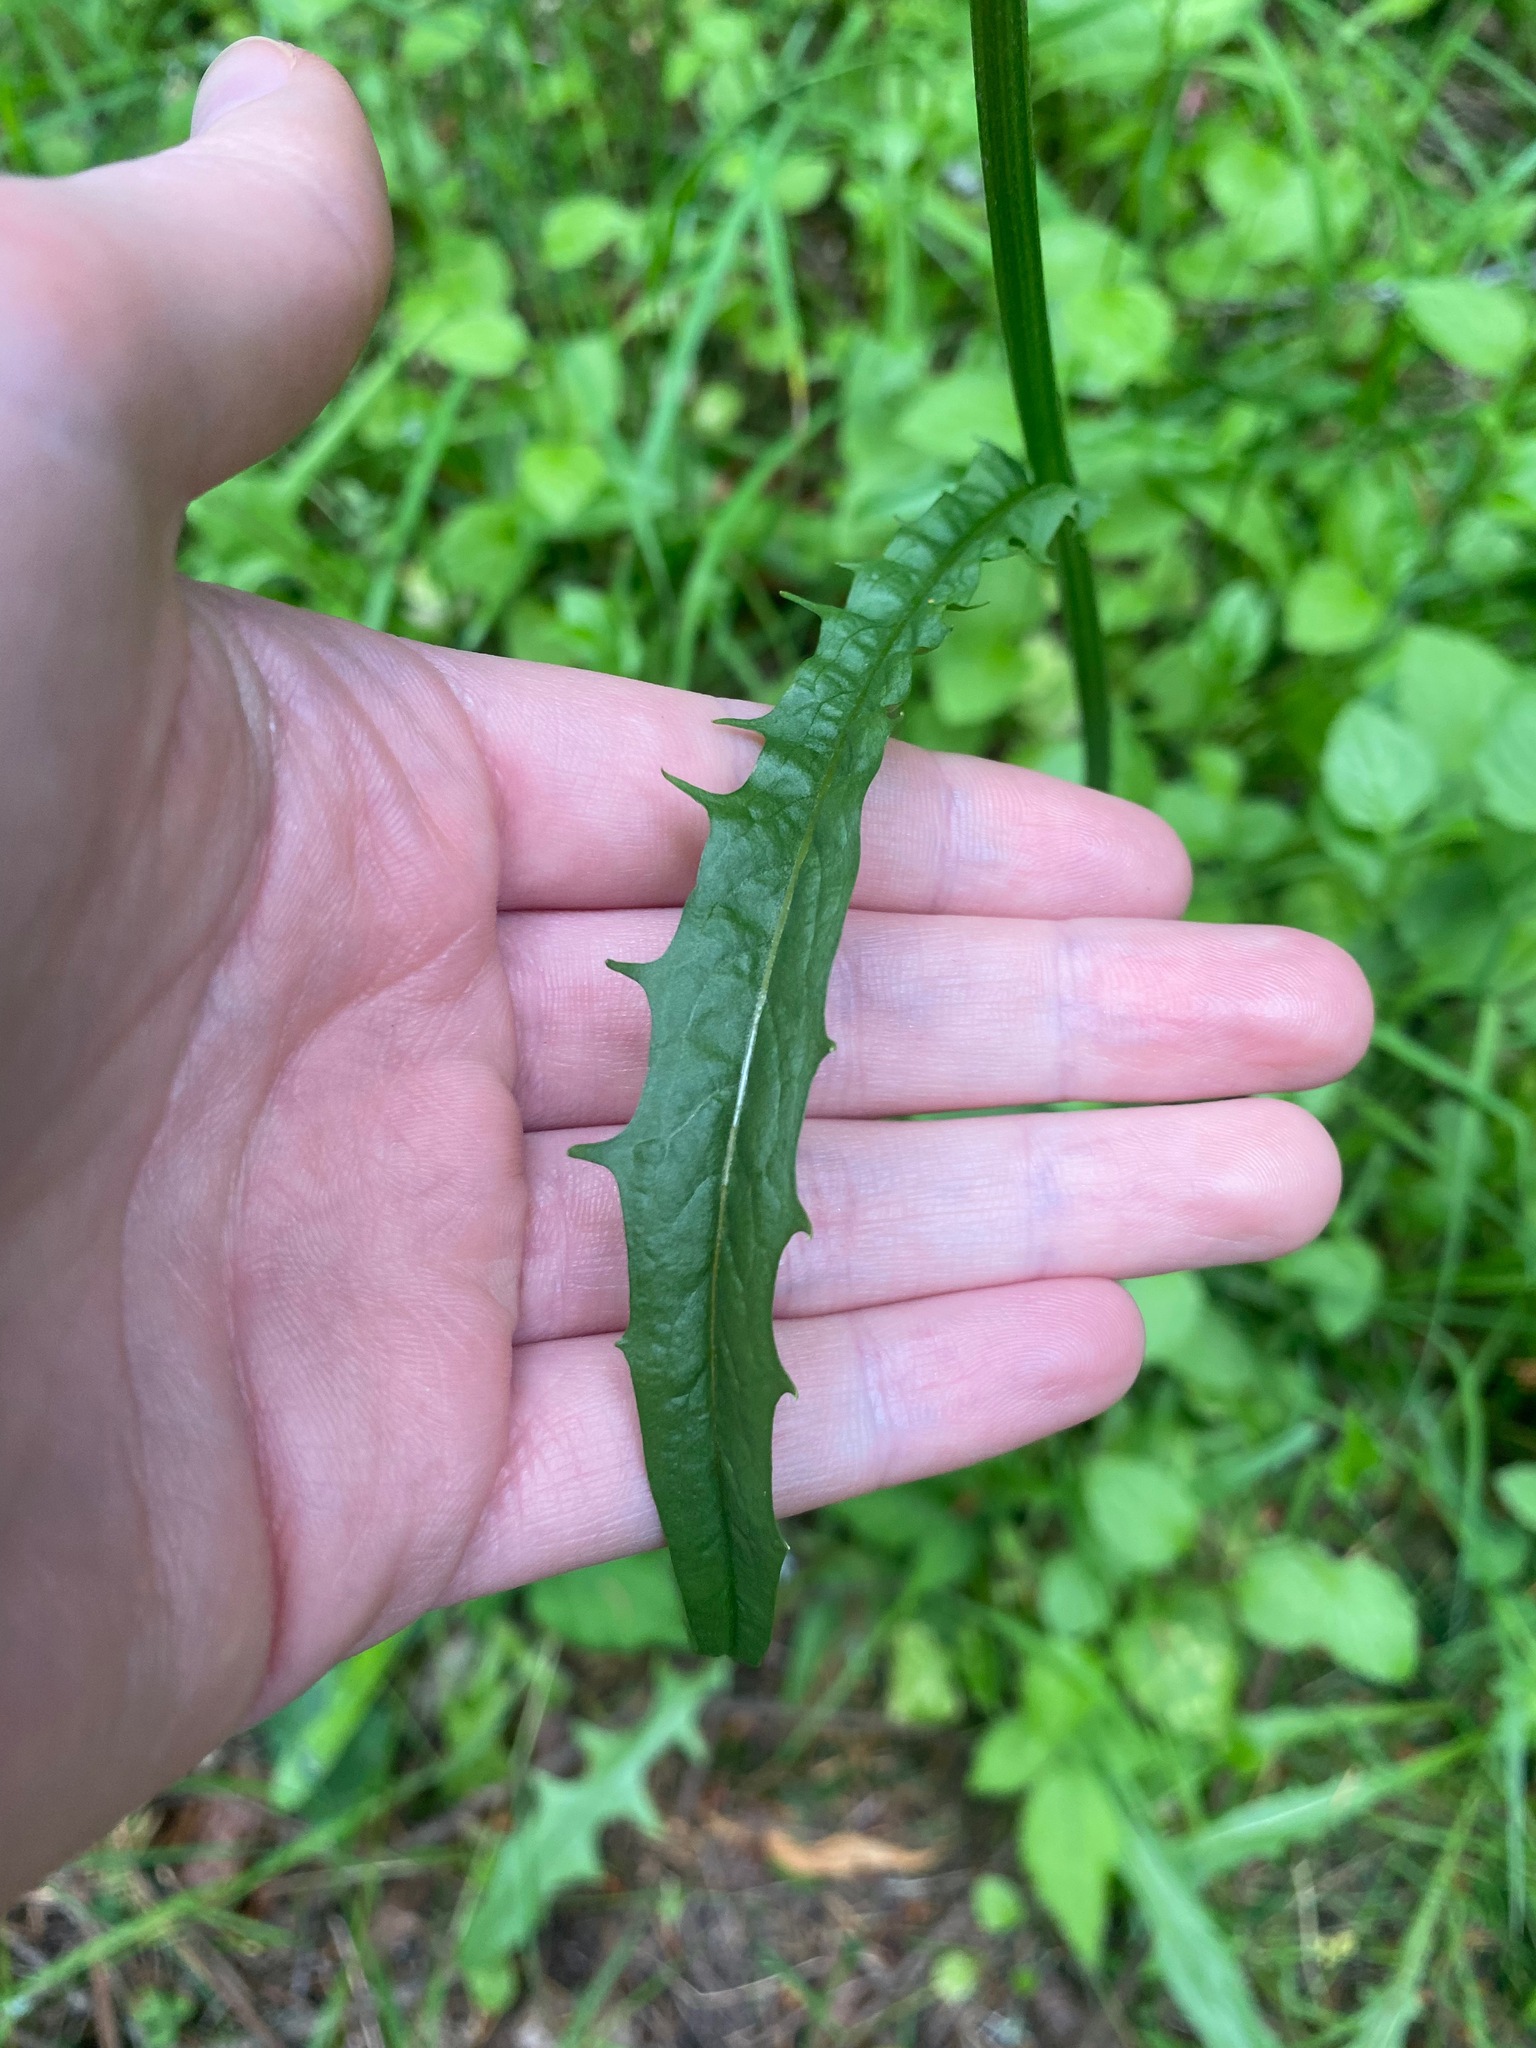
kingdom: Plantae
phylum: Tracheophyta
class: Magnoliopsida
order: Asterales
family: Asteraceae
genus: Crepis
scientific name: Crepis capillaris
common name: Smooth hawksbeard
